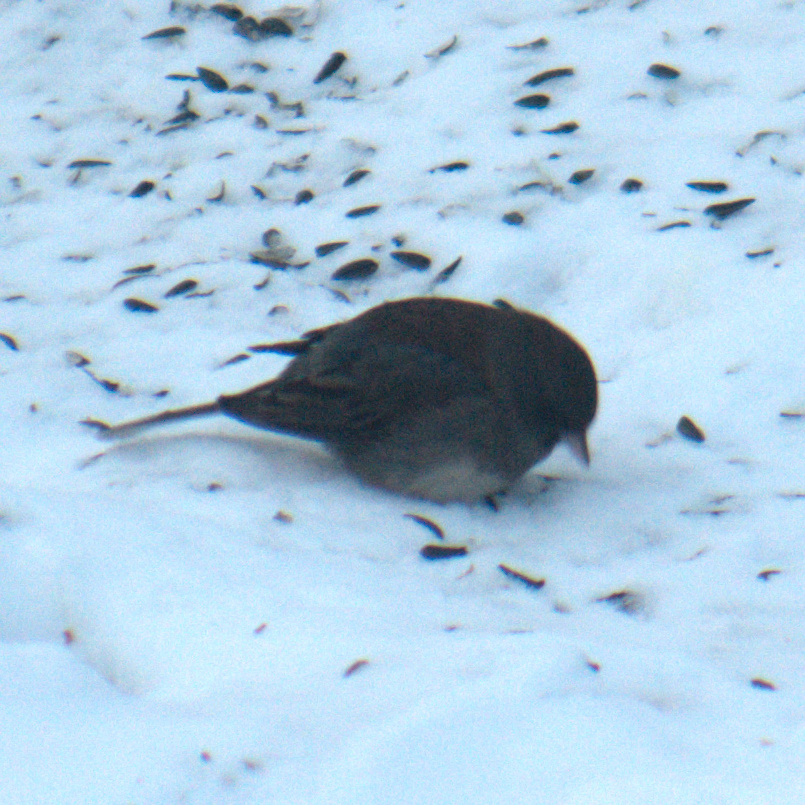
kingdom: Animalia
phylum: Chordata
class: Aves
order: Passeriformes
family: Passerellidae
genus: Junco
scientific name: Junco hyemalis
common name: Dark-eyed junco
